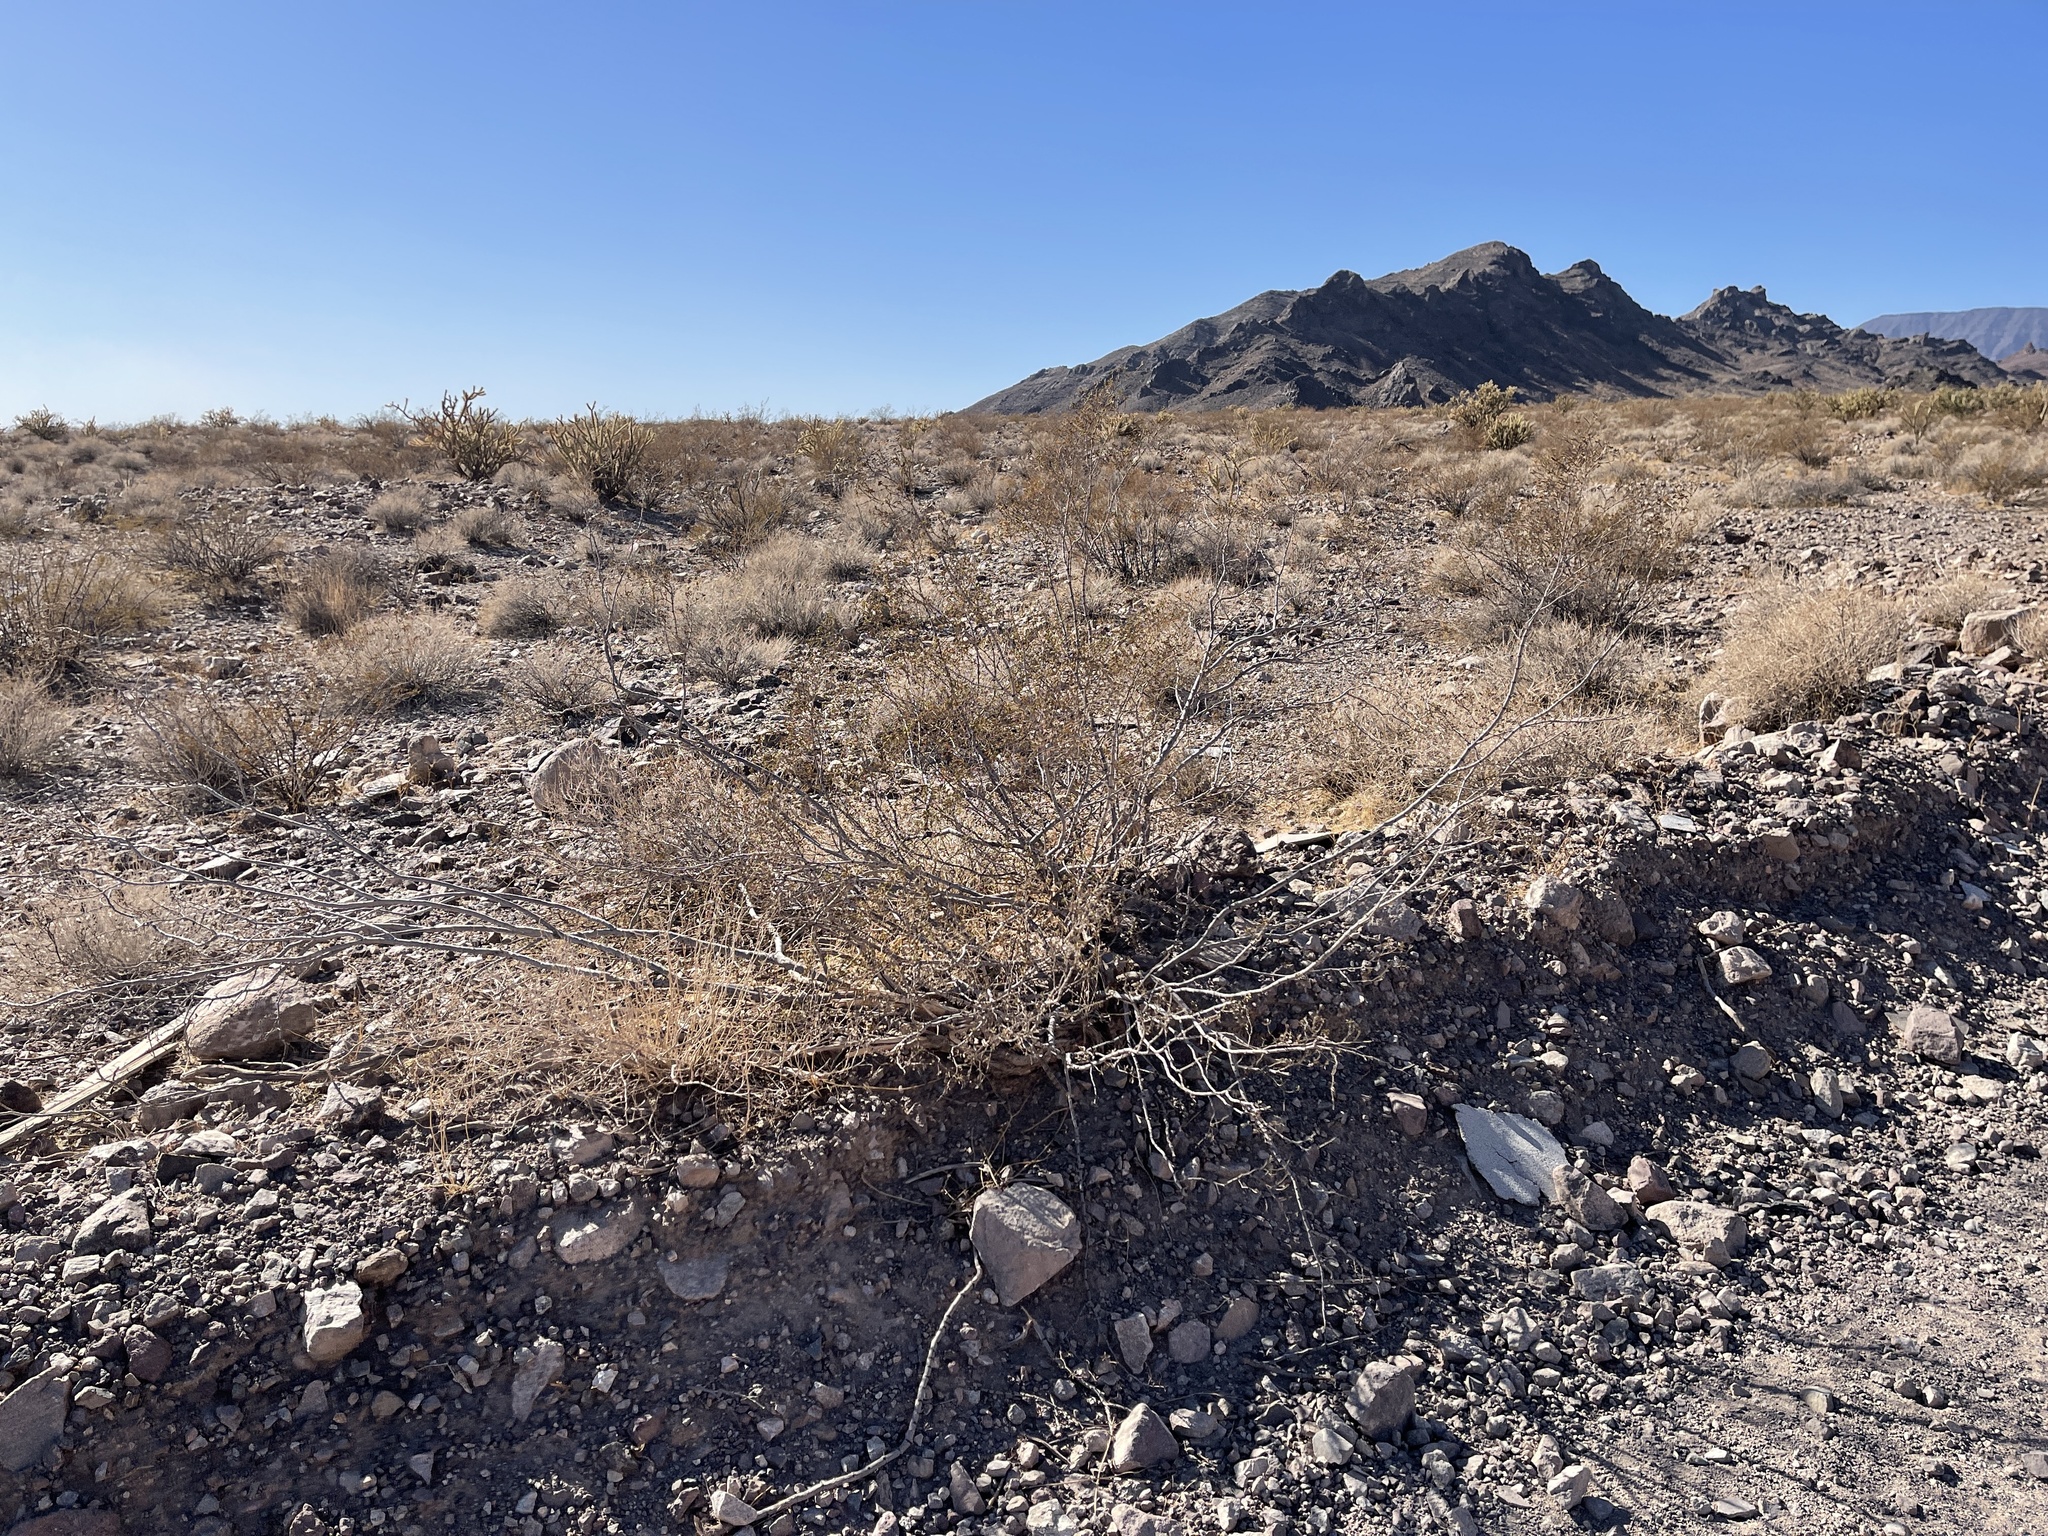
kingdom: Plantae
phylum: Tracheophyta
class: Magnoliopsida
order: Zygophyllales
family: Zygophyllaceae
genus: Larrea
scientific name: Larrea tridentata
